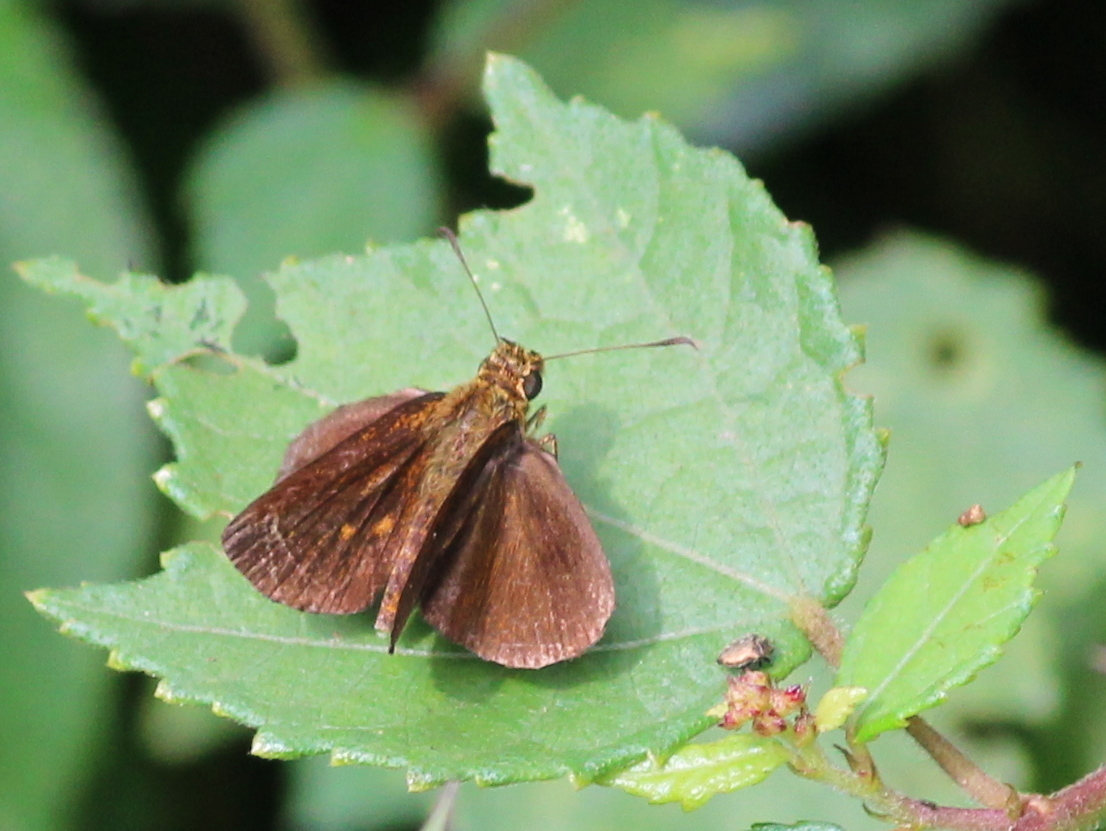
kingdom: Animalia
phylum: Arthropoda
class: Insecta
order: Lepidoptera
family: Hesperiidae
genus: Iambrix
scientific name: Iambrix salsala
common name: Chestnut bob
